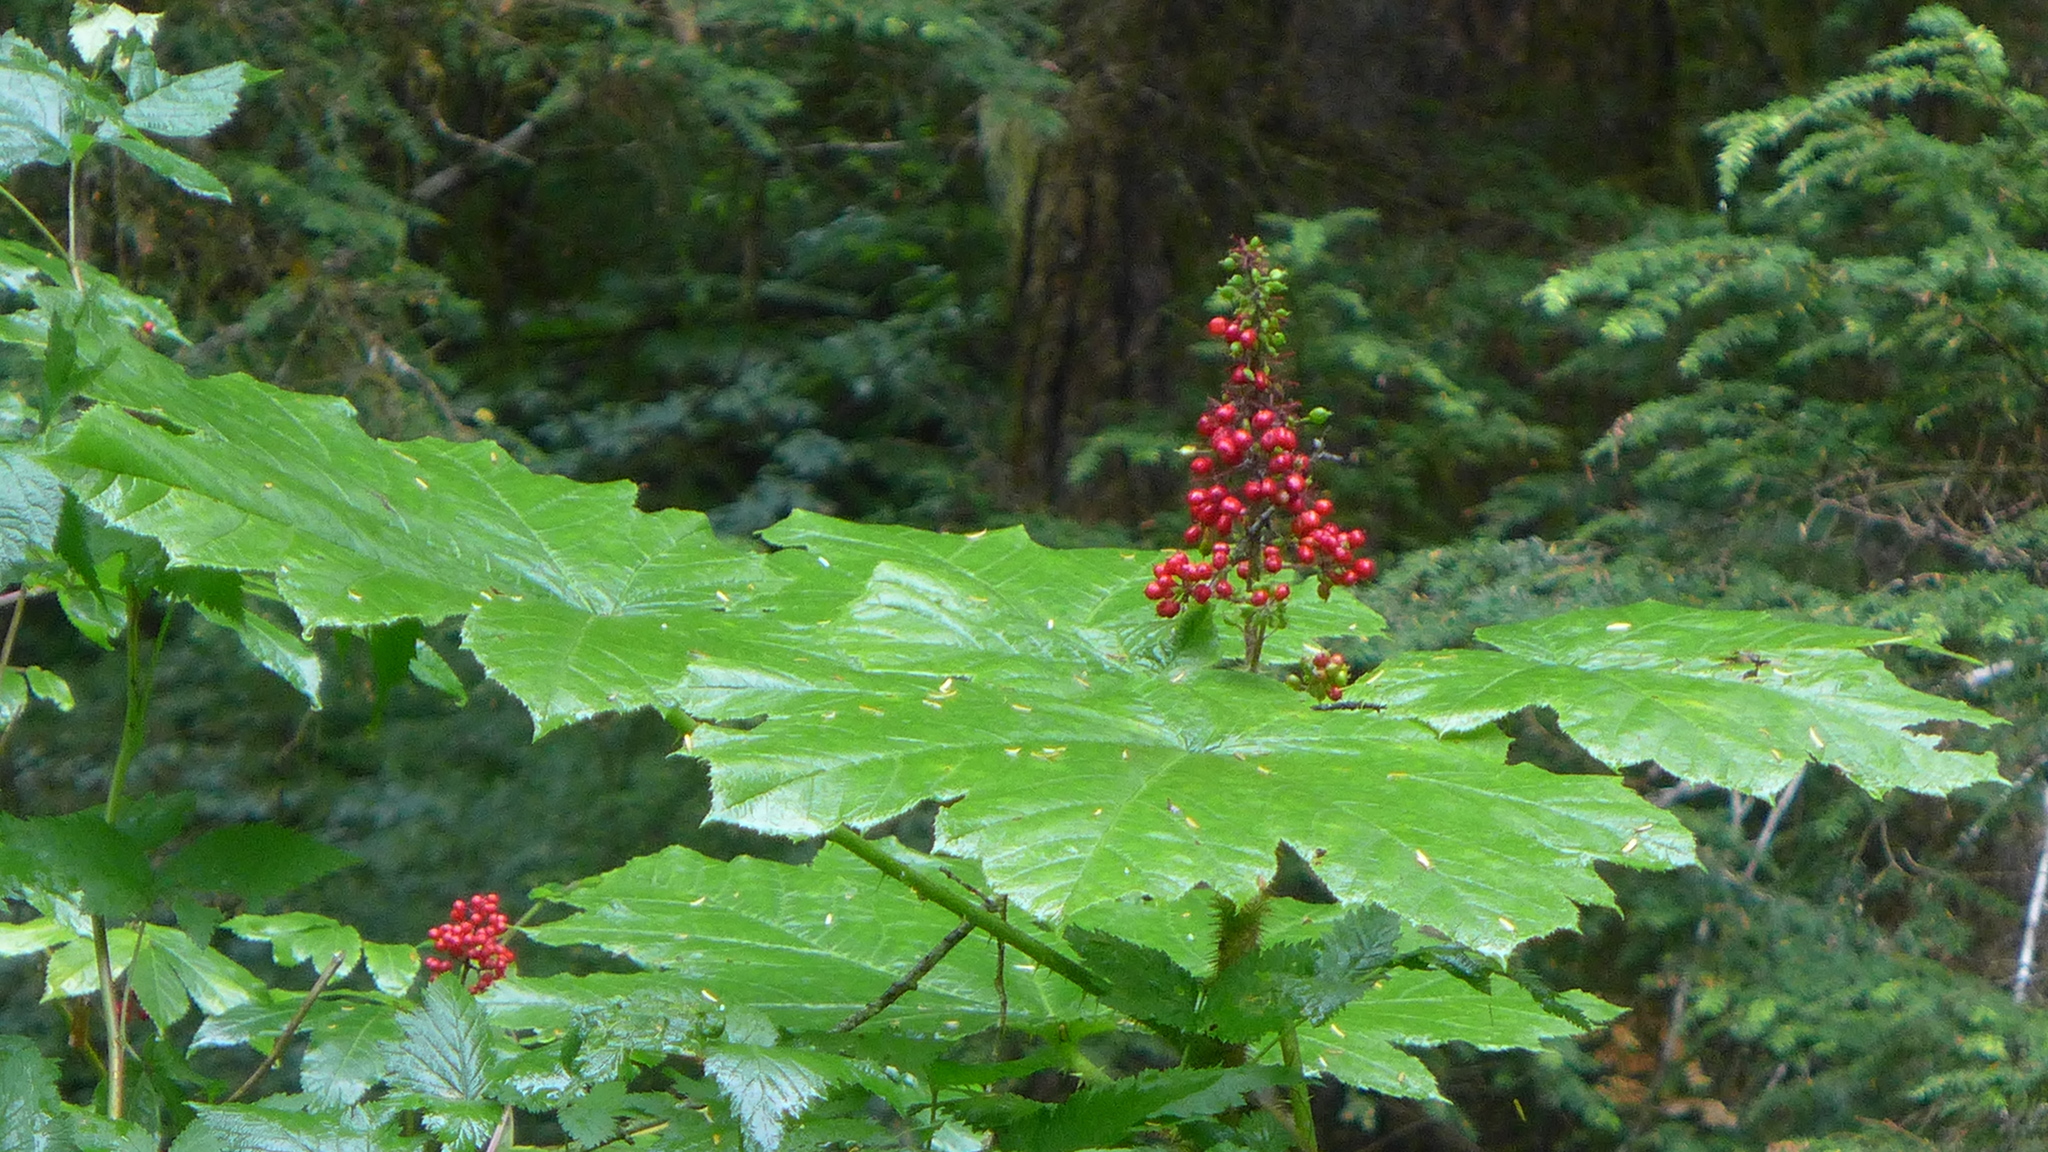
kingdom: Plantae
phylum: Tracheophyta
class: Magnoliopsida
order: Apiales
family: Araliaceae
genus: Oplopanax
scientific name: Oplopanax horridus
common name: Devil's walking-stick
